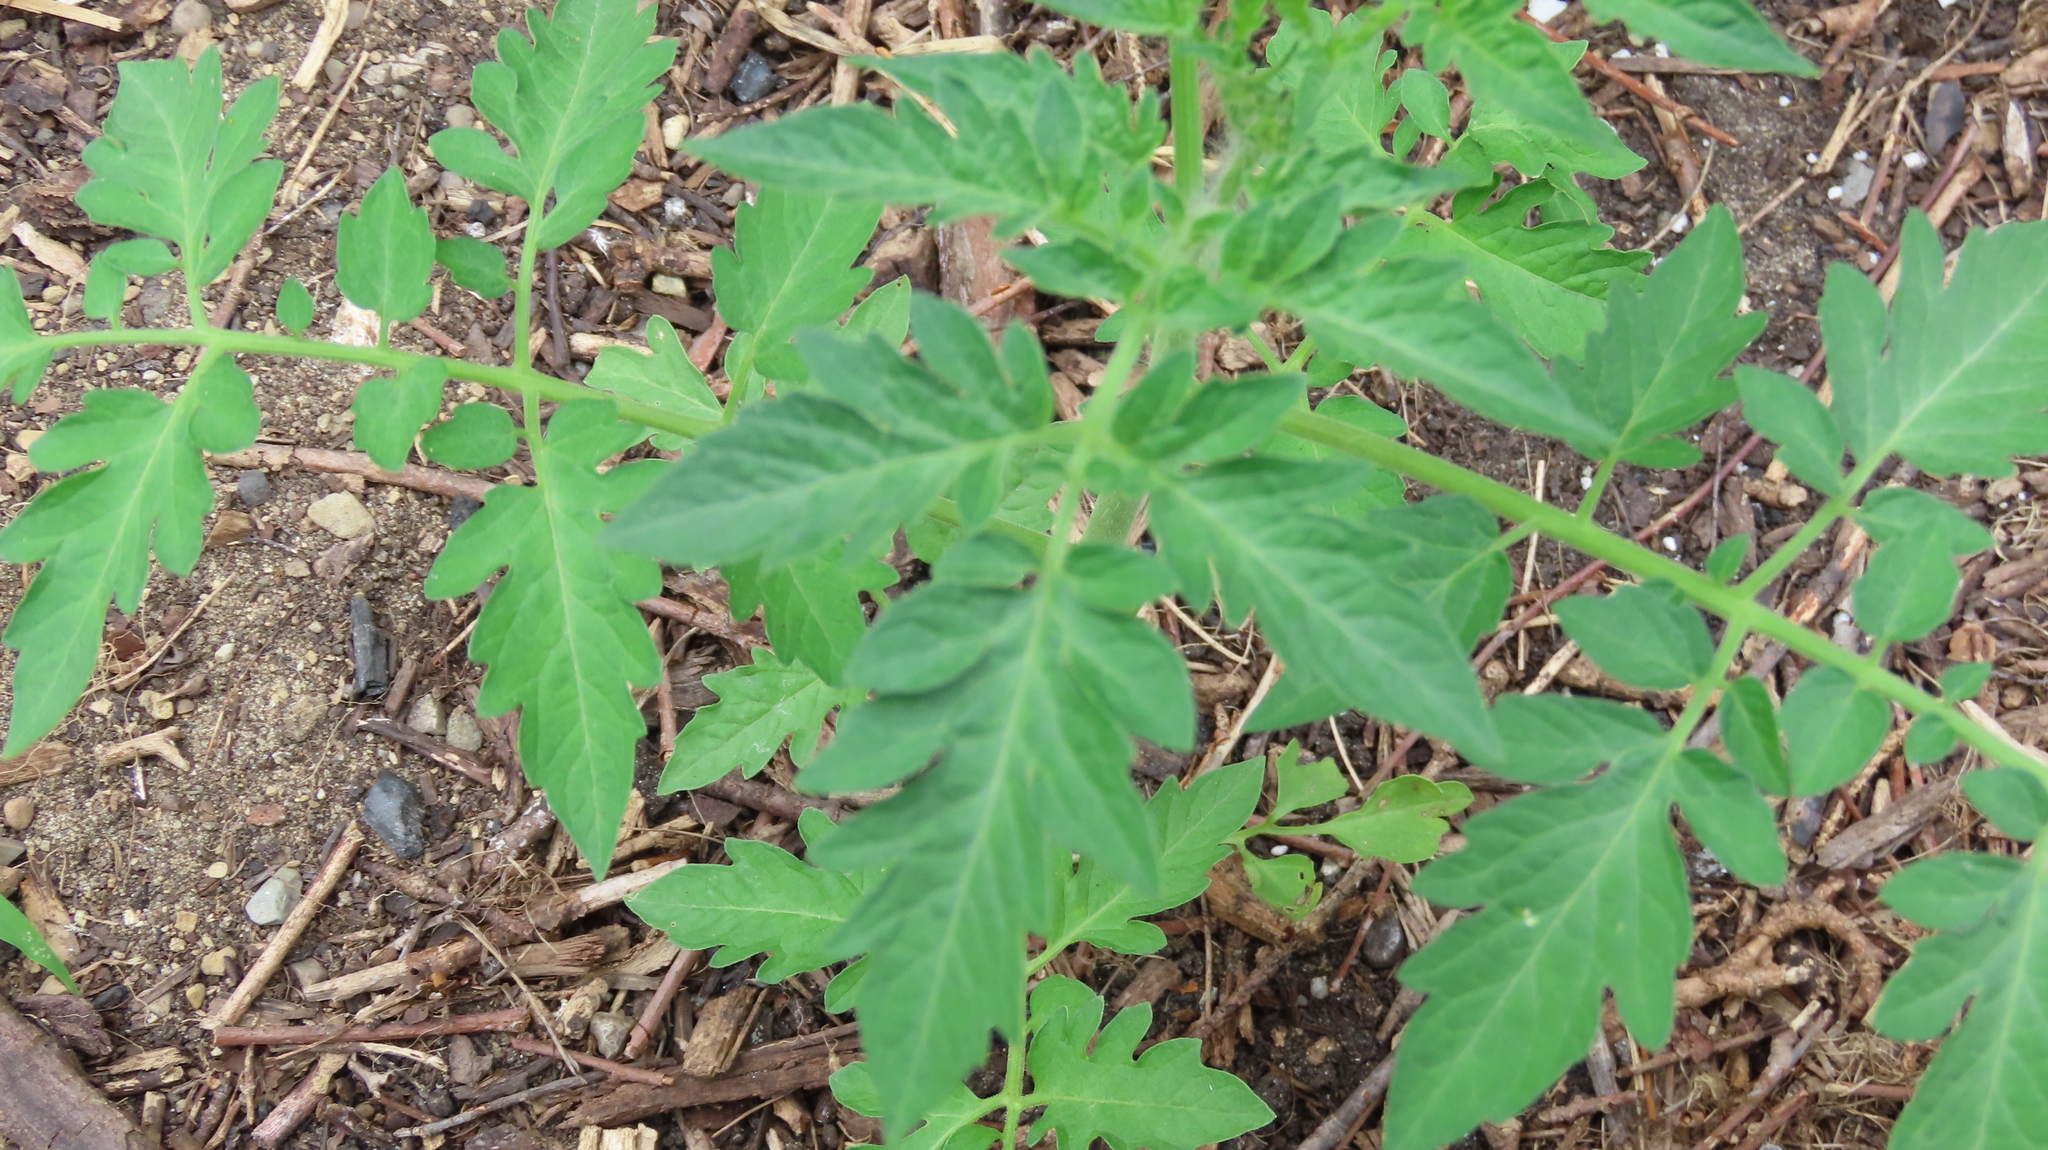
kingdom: Plantae
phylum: Tracheophyta
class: Magnoliopsida
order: Solanales
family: Solanaceae
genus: Solanum
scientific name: Solanum lycopersicum
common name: Garden tomato
